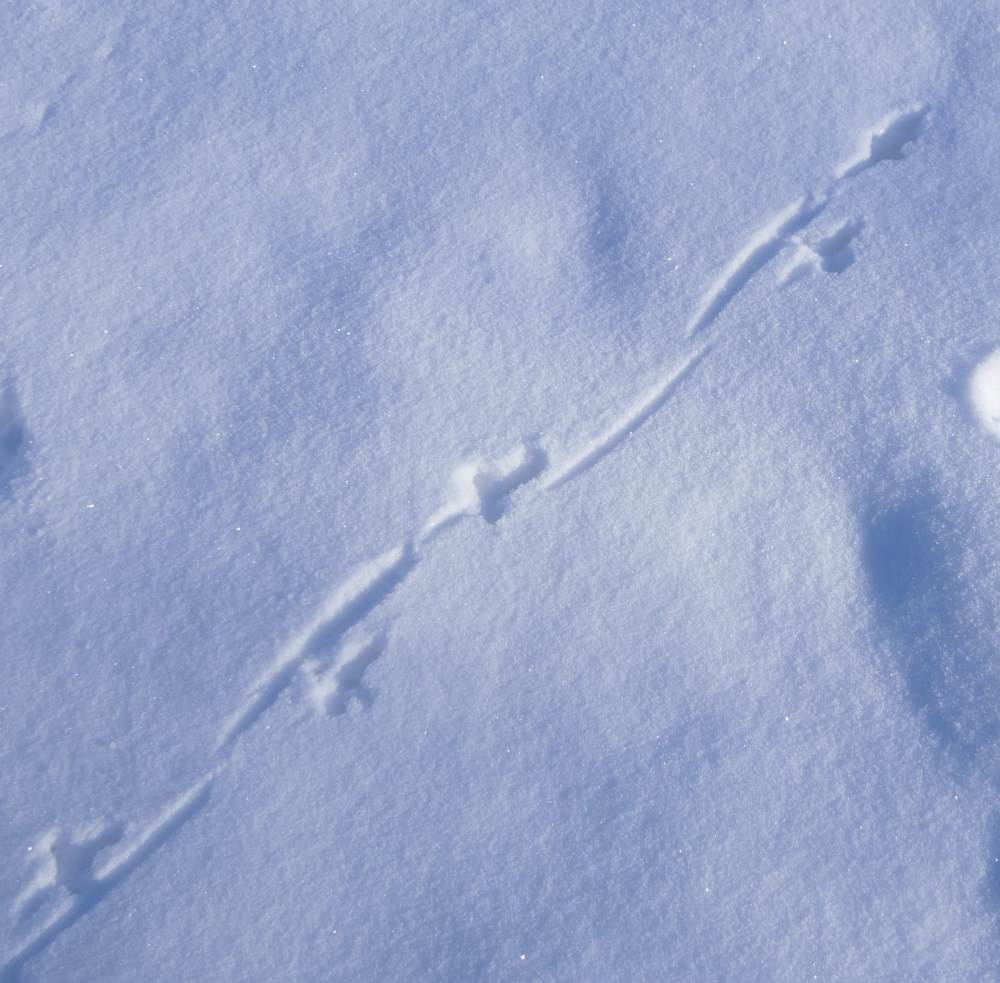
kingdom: Animalia
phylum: Chordata
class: Aves
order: Galliformes
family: Phasianidae
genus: Bonasa
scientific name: Bonasa umbellus
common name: Ruffed grouse
